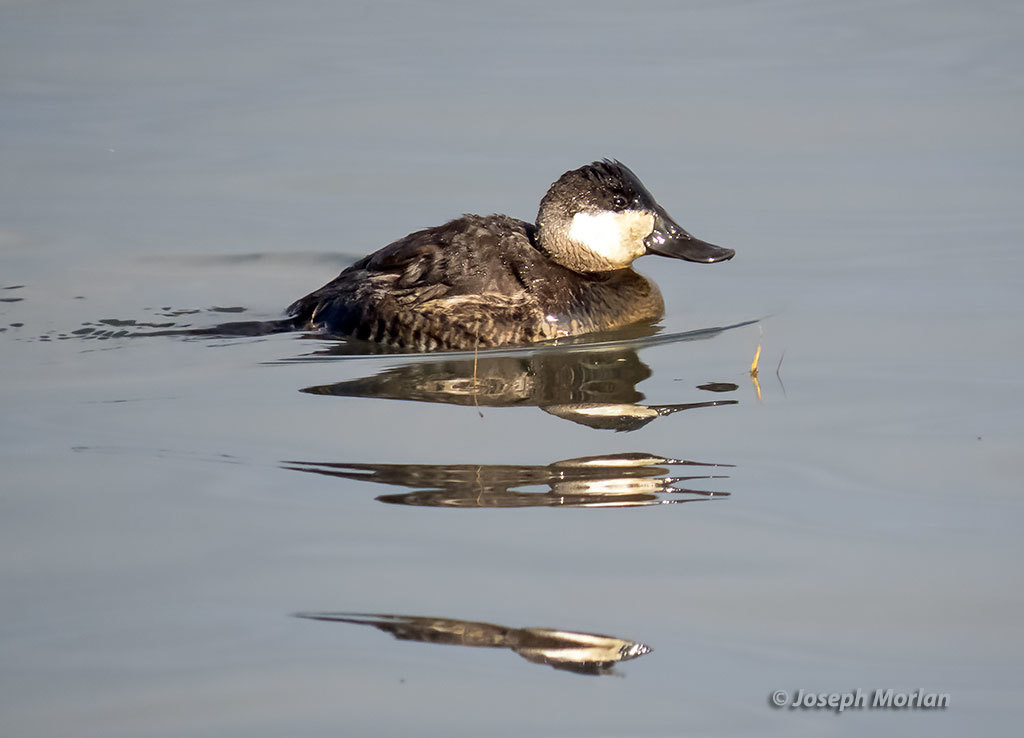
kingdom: Animalia
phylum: Chordata
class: Aves
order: Anseriformes
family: Anatidae
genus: Oxyura
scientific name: Oxyura jamaicensis
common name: Ruddy duck
